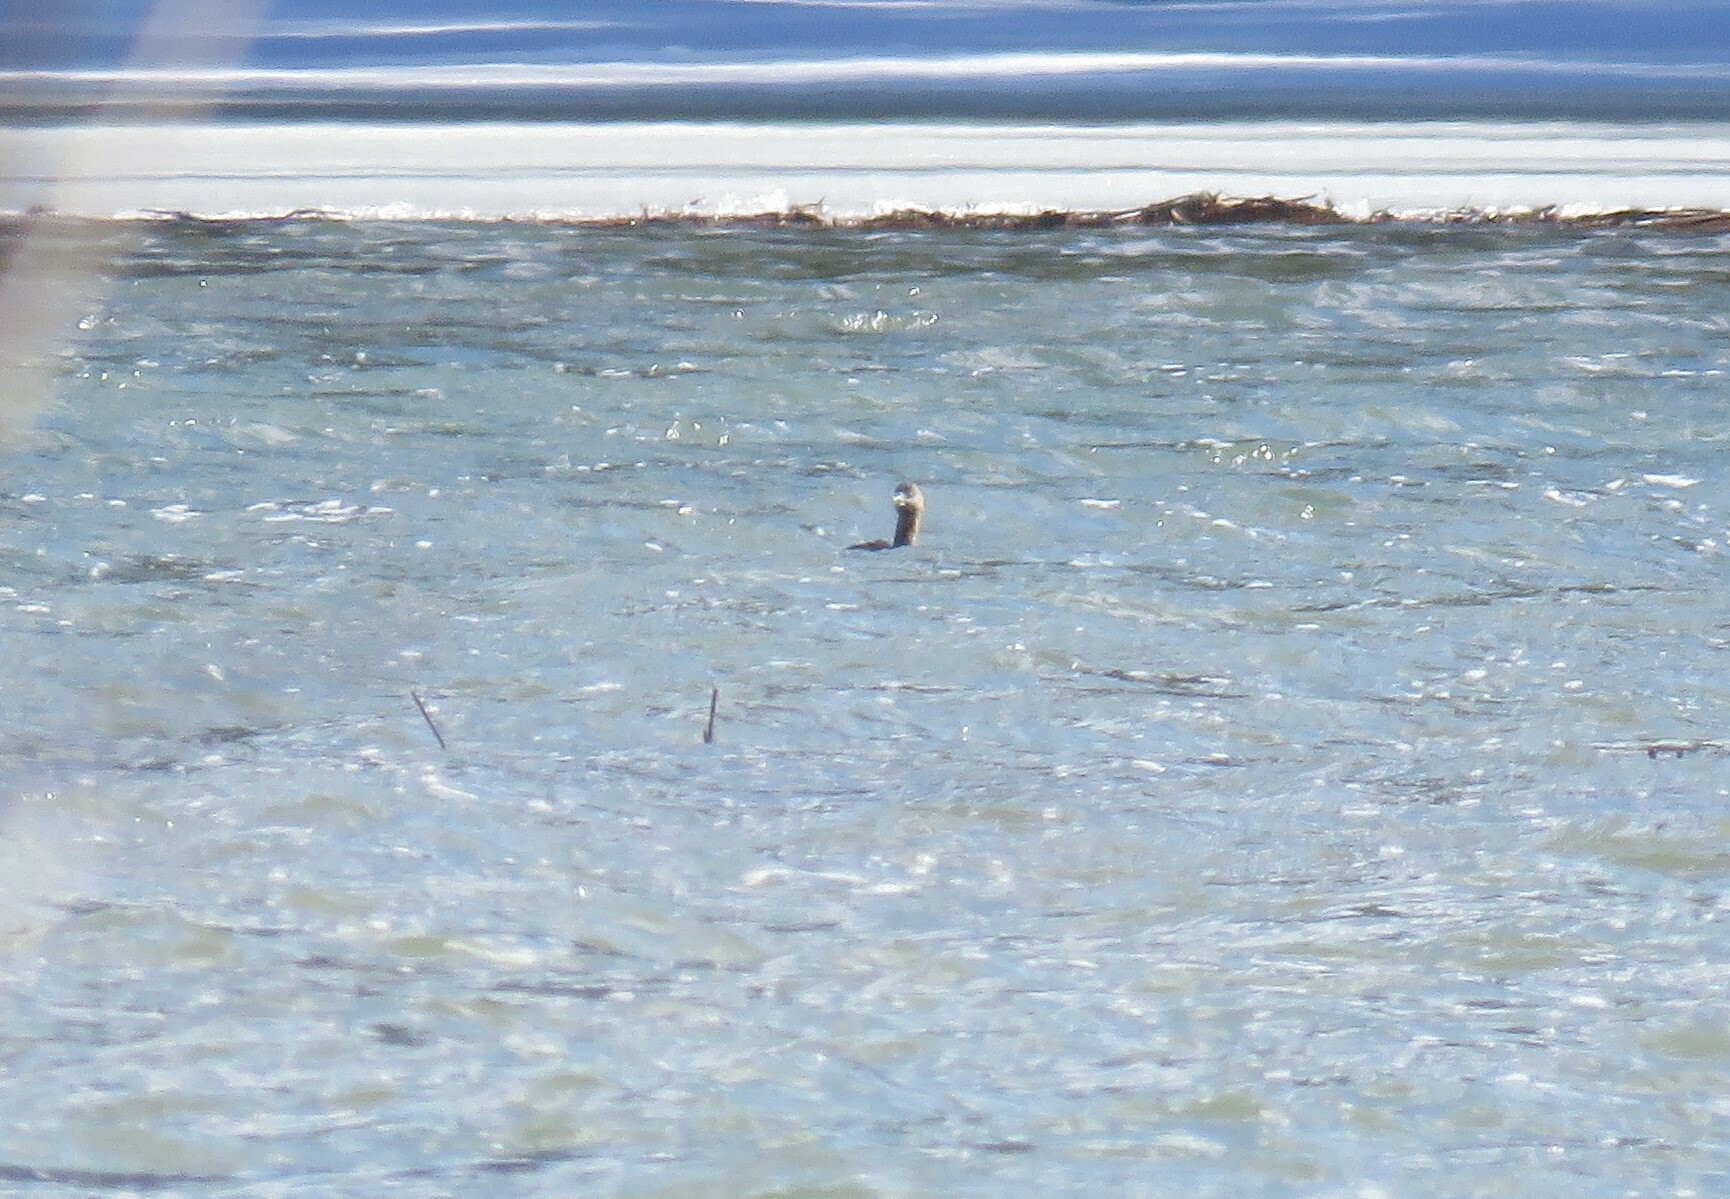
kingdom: Animalia
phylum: Chordata
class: Aves
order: Podicipediformes
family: Podicipedidae
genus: Podilymbus
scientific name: Podilymbus podiceps
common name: Pied-billed grebe
